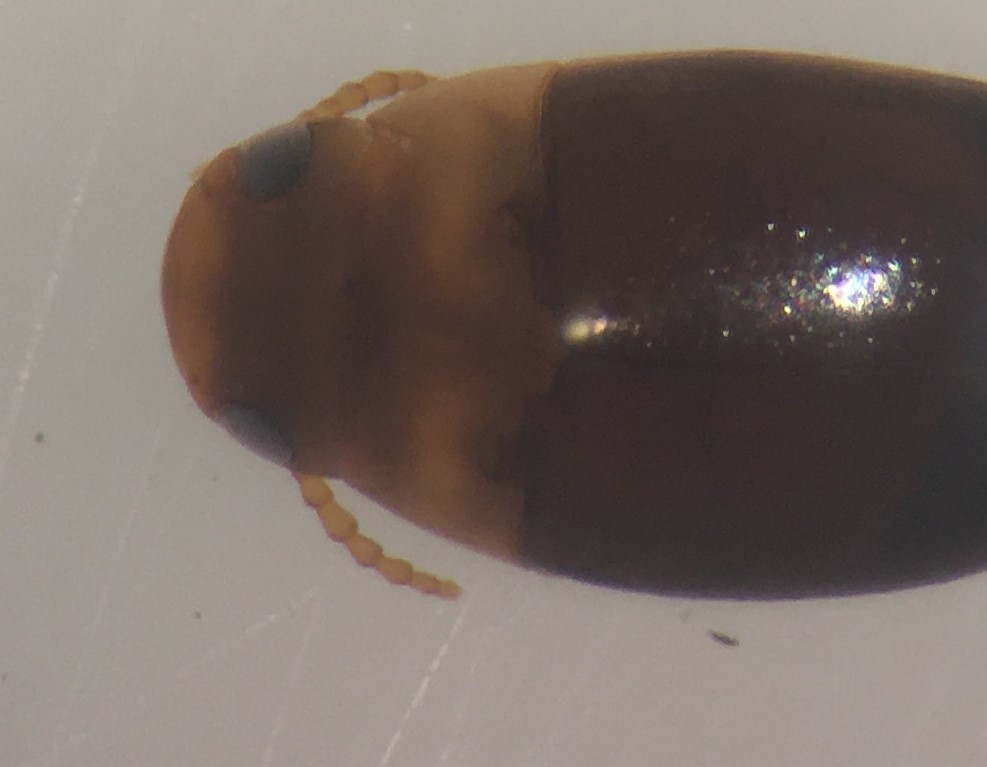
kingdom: Animalia
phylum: Arthropoda
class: Insecta
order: Coleoptera
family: Noteridae
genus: Mesonoterus
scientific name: Mesonoterus addendus
